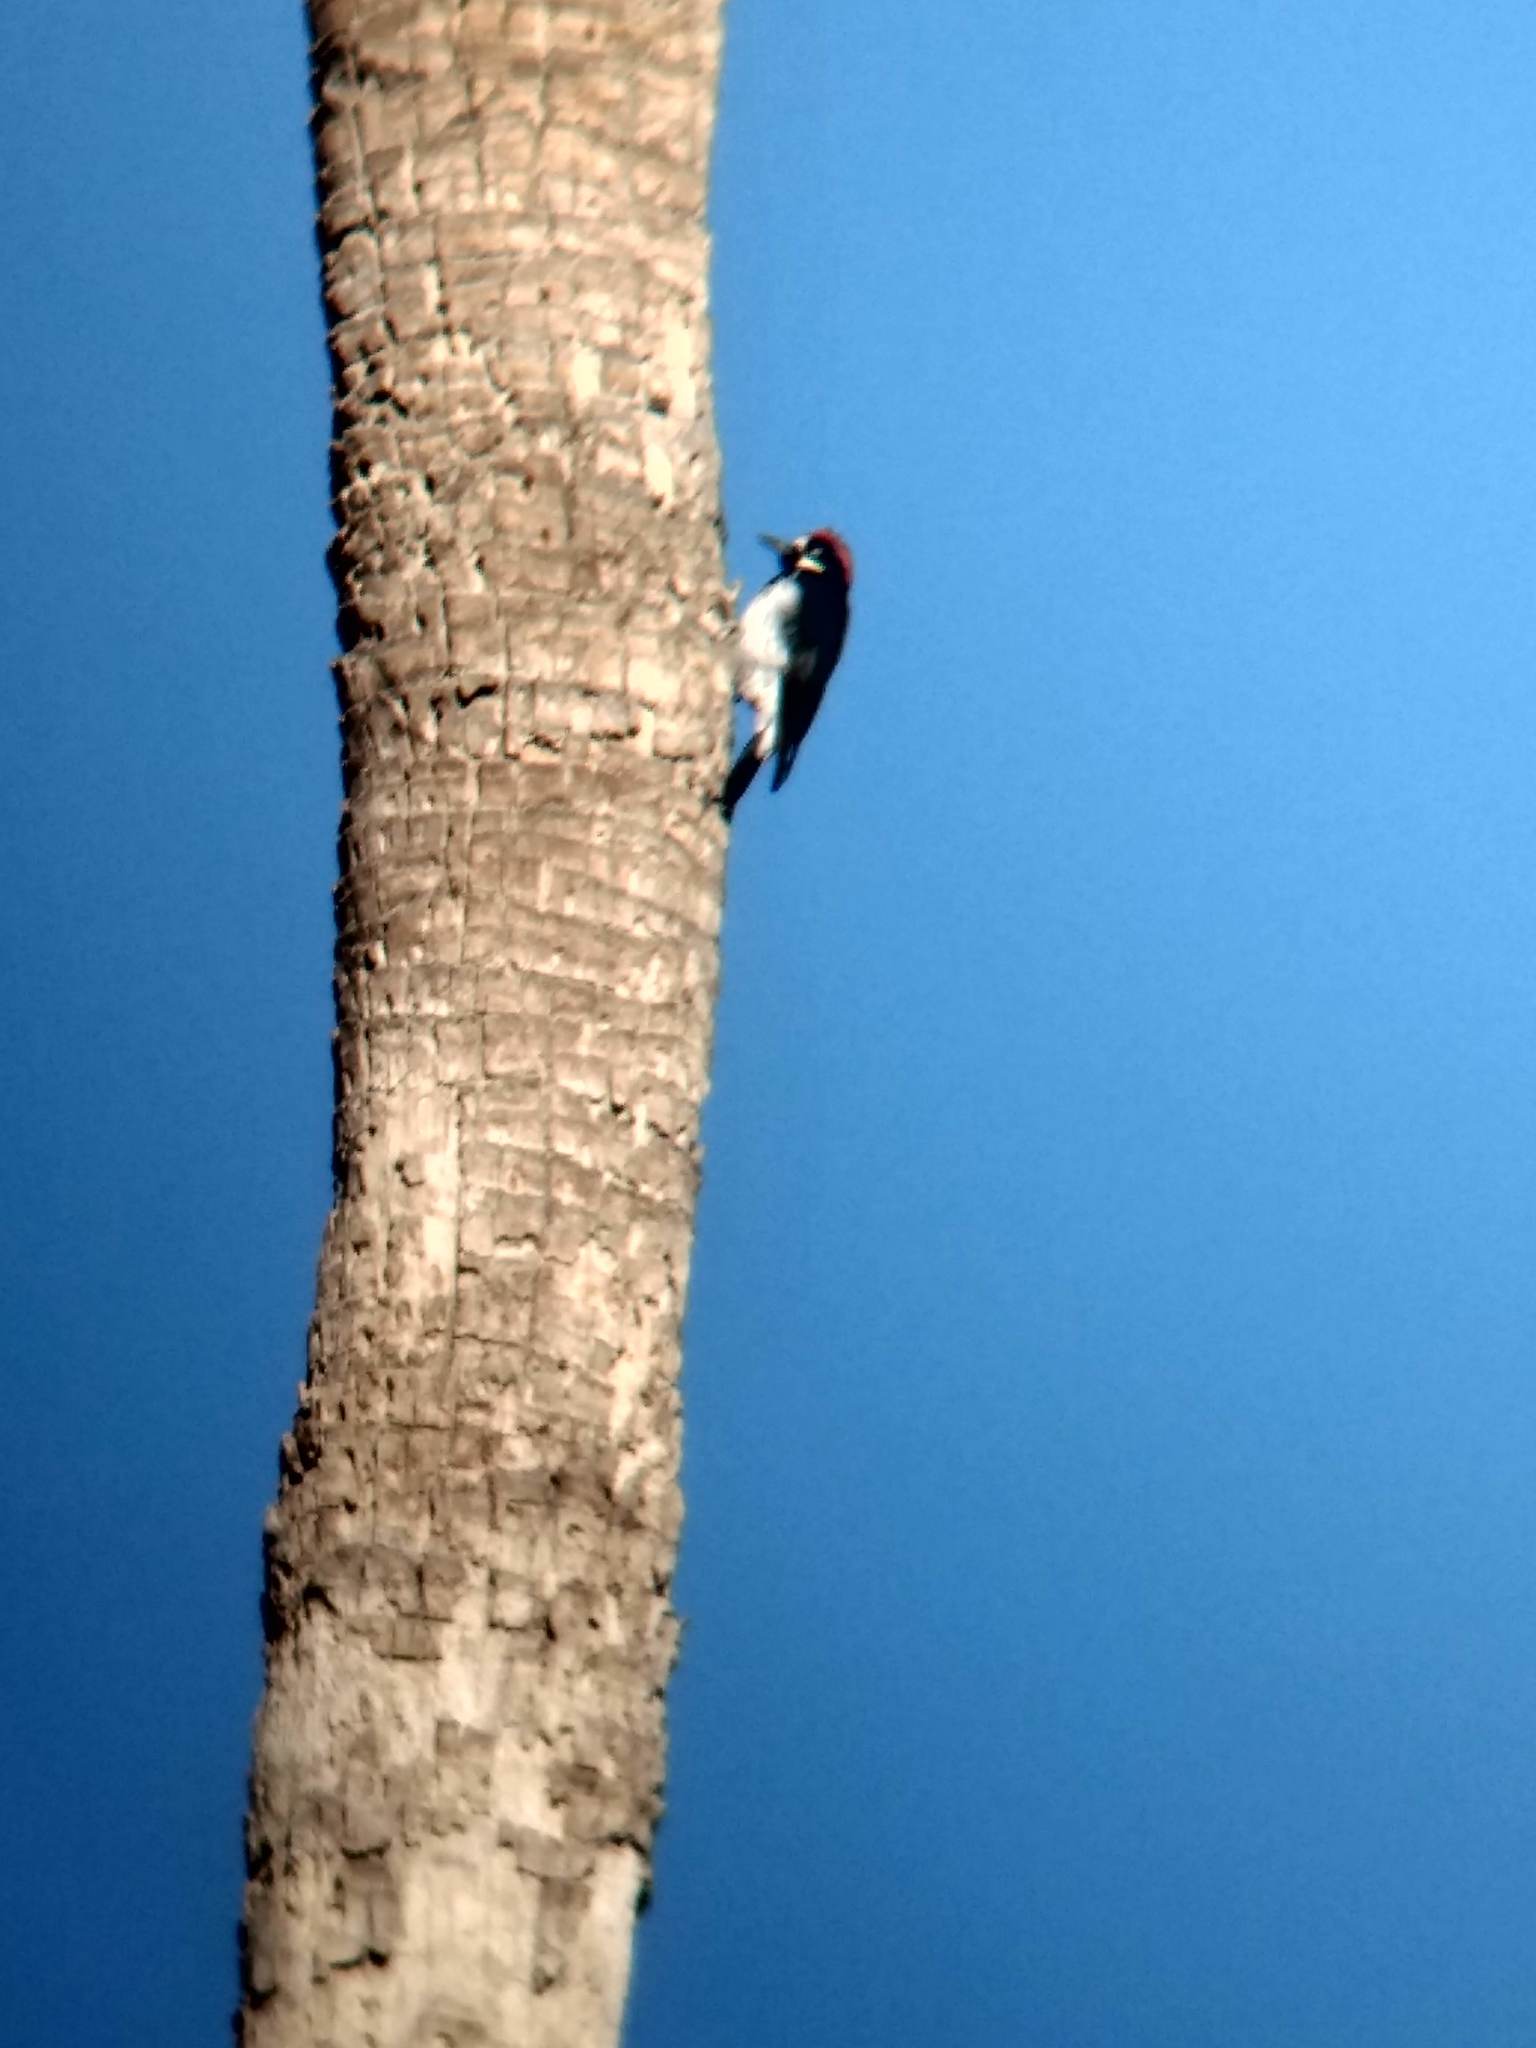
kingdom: Animalia
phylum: Chordata
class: Aves
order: Piciformes
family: Picidae
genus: Melanerpes
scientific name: Melanerpes formicivorus
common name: Acorn woodpecker
